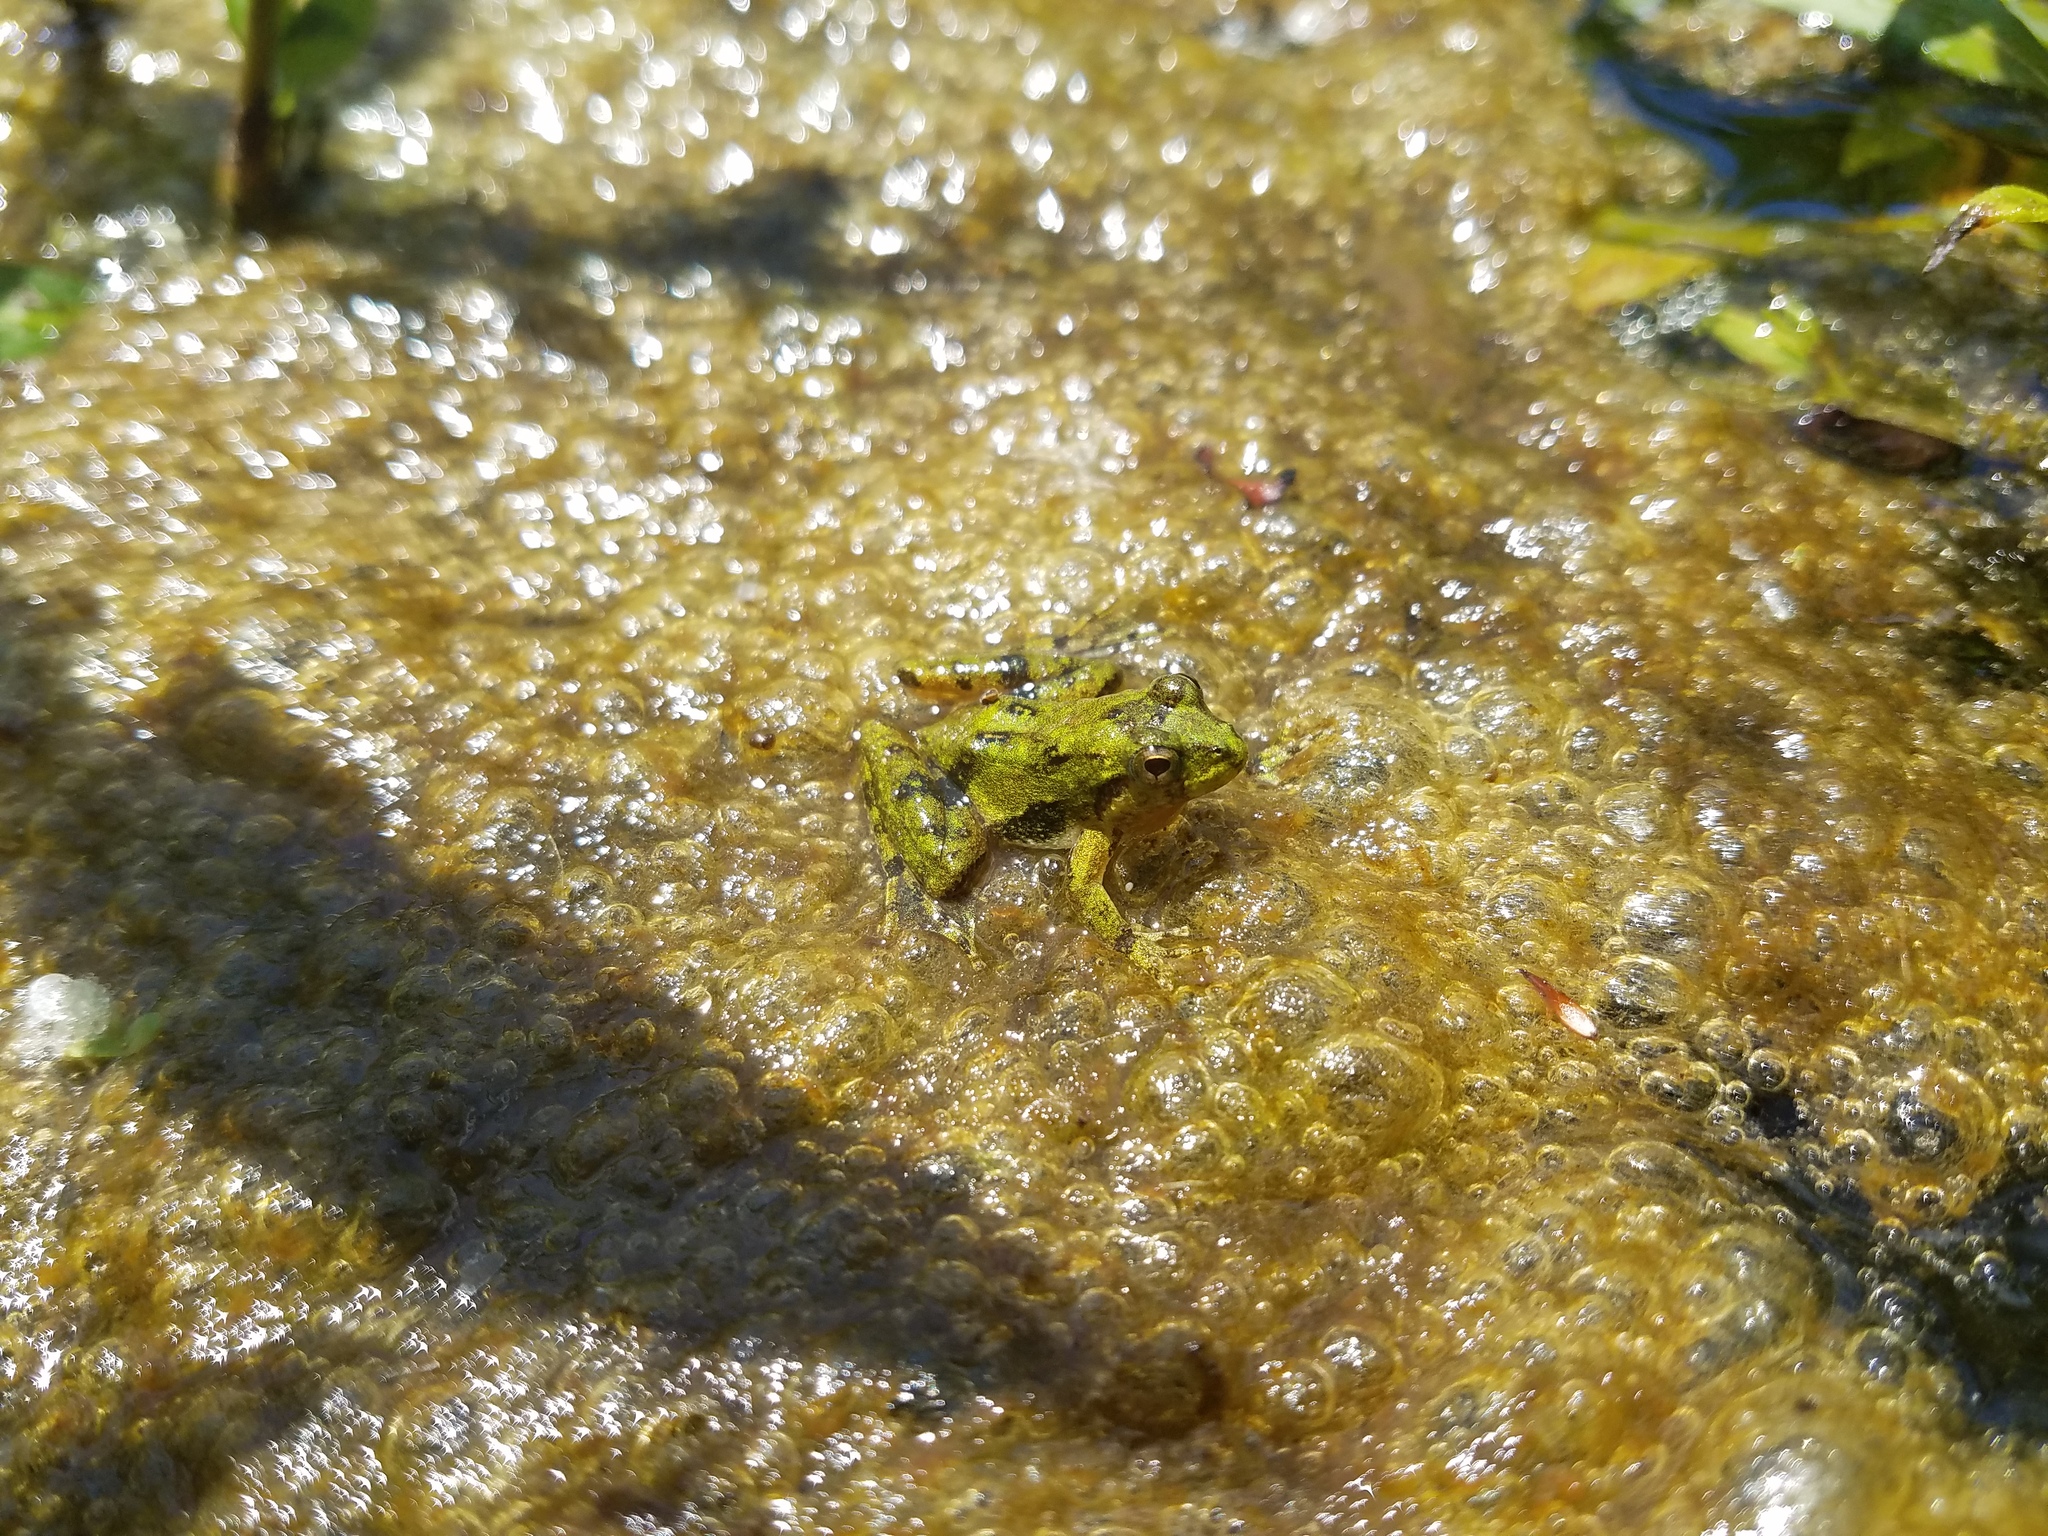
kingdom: Animalia
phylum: Chordata
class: Amphibia
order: Anura
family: Hylidae
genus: Acris
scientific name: Acris blanchardi
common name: Blanchard's cricket frog
